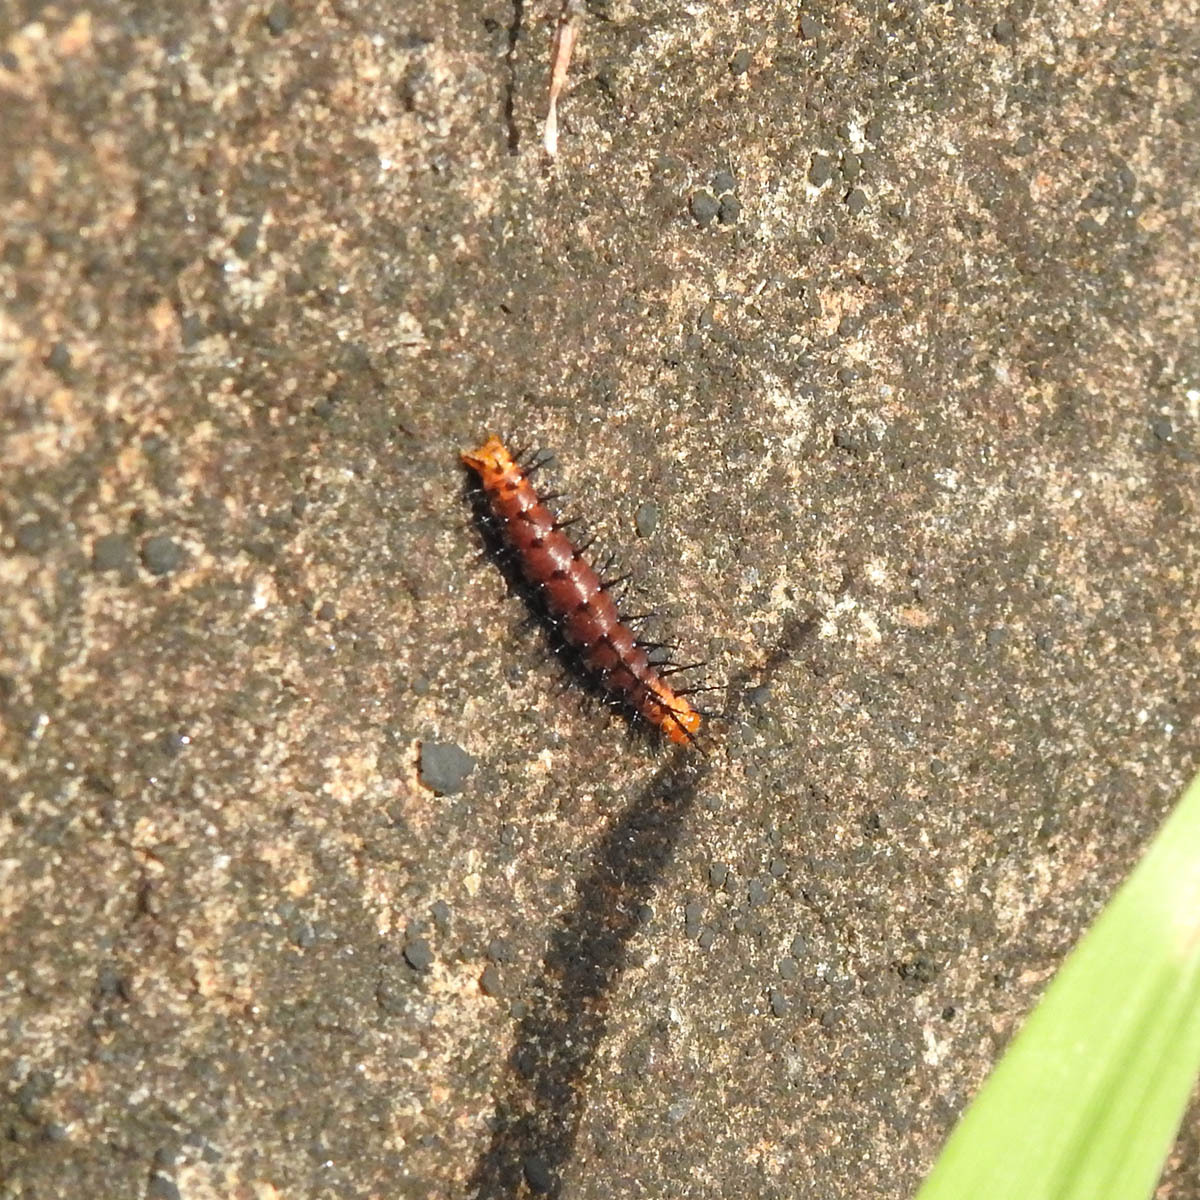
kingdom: Animalia
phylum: Arthropoda
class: Insecta
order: Lepidoptera
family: Nymphalidae
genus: Acraea
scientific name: Acraea terpsicore
